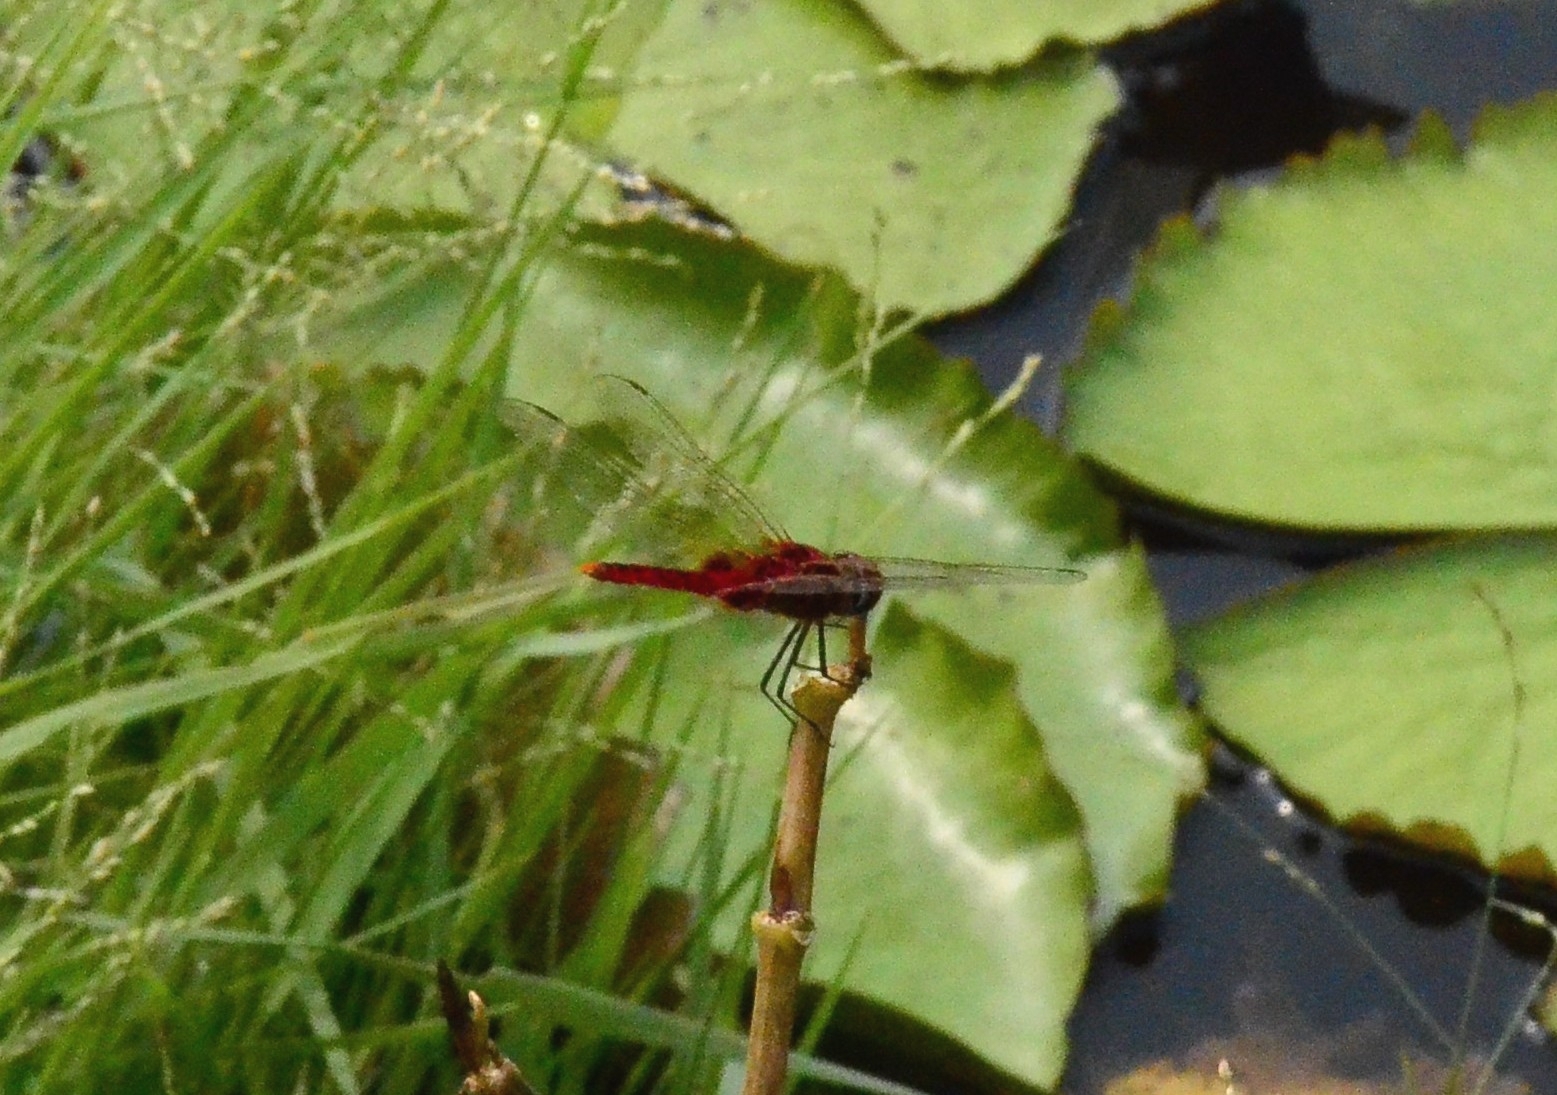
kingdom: Animalia
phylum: Arthropoda
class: Insecta
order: Odonata
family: Libellulidae
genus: Urothemis
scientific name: Urothemis signata
